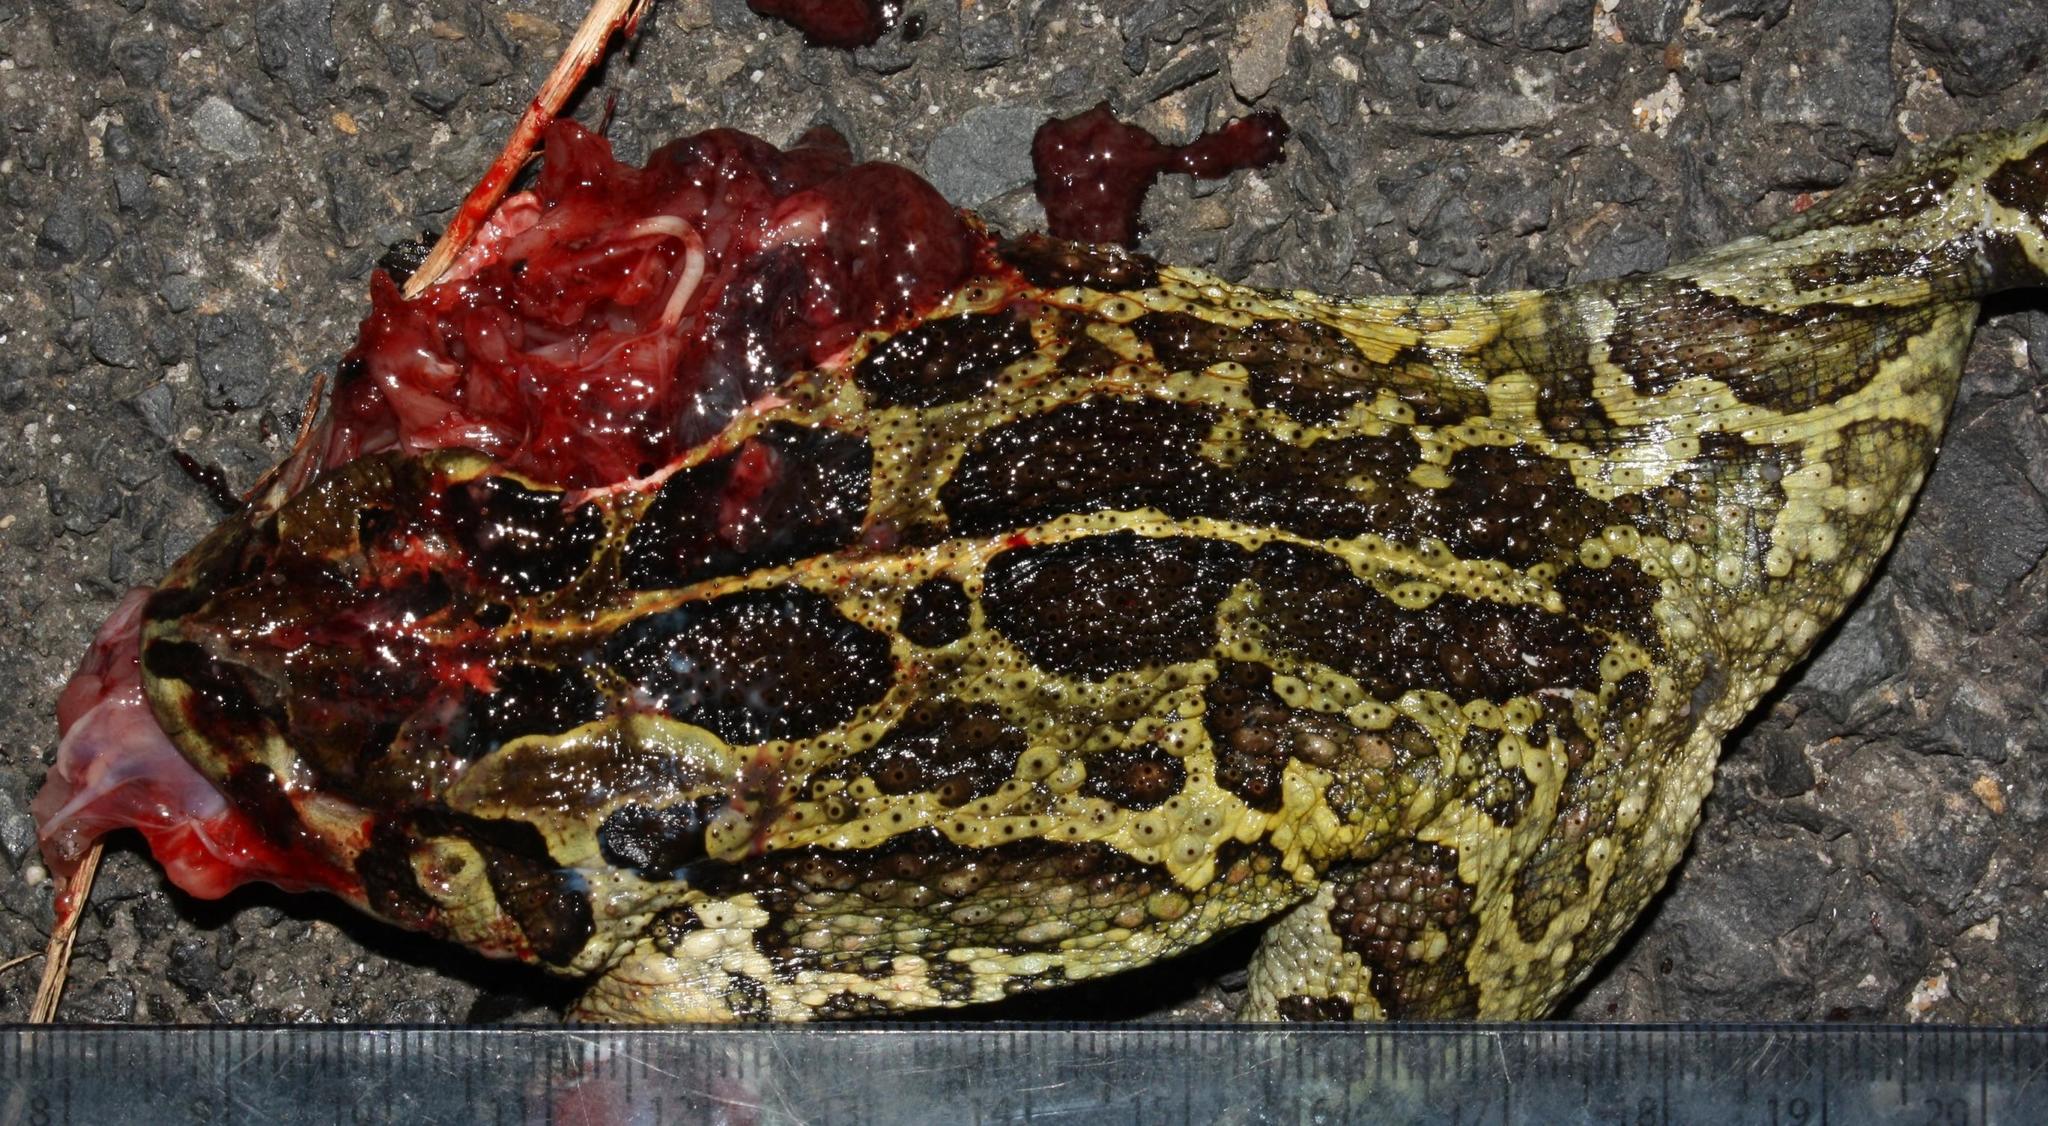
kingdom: Animalia
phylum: Chordata
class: Amphibia
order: Anura
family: Bufonidae
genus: Sclerophrys
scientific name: Sclerophrys pantherina
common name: Panther toad
